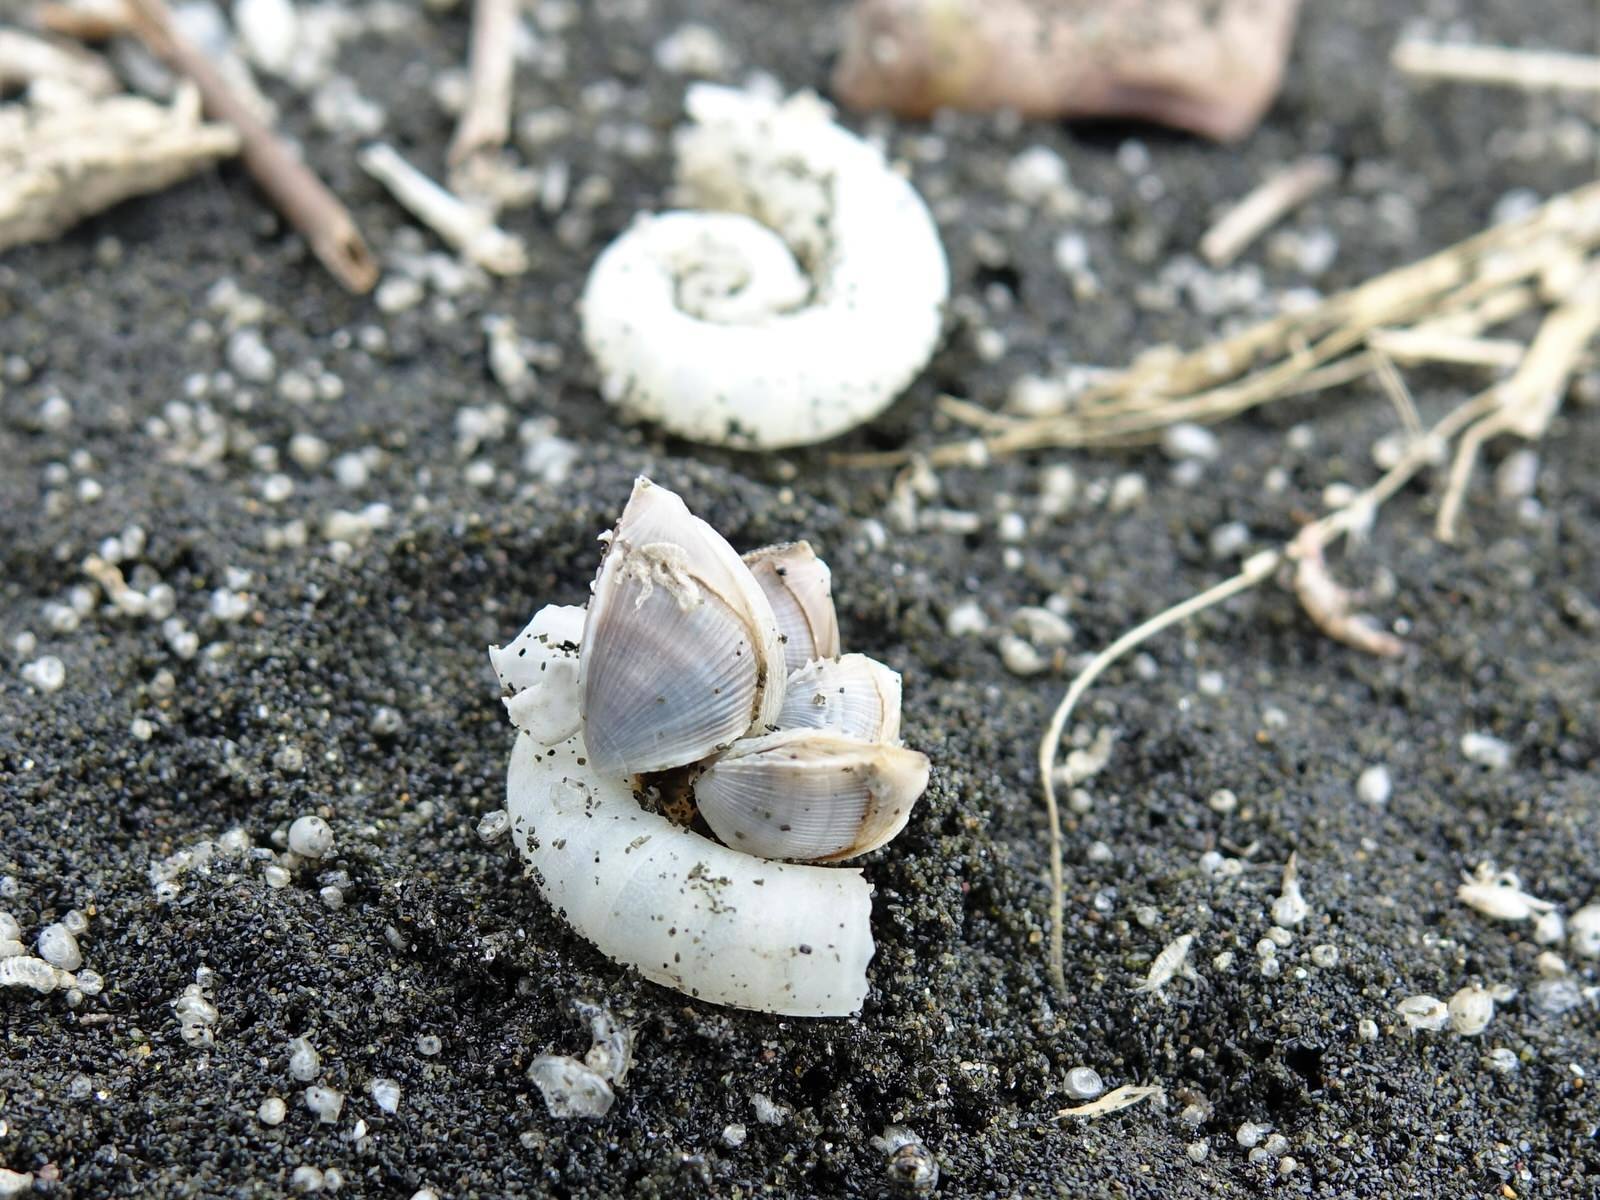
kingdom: Animalia
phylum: Arthropoda
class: Maxillopoda
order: Pedunculata
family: Lepadidae
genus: Lepas
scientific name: Lepas pectinata
